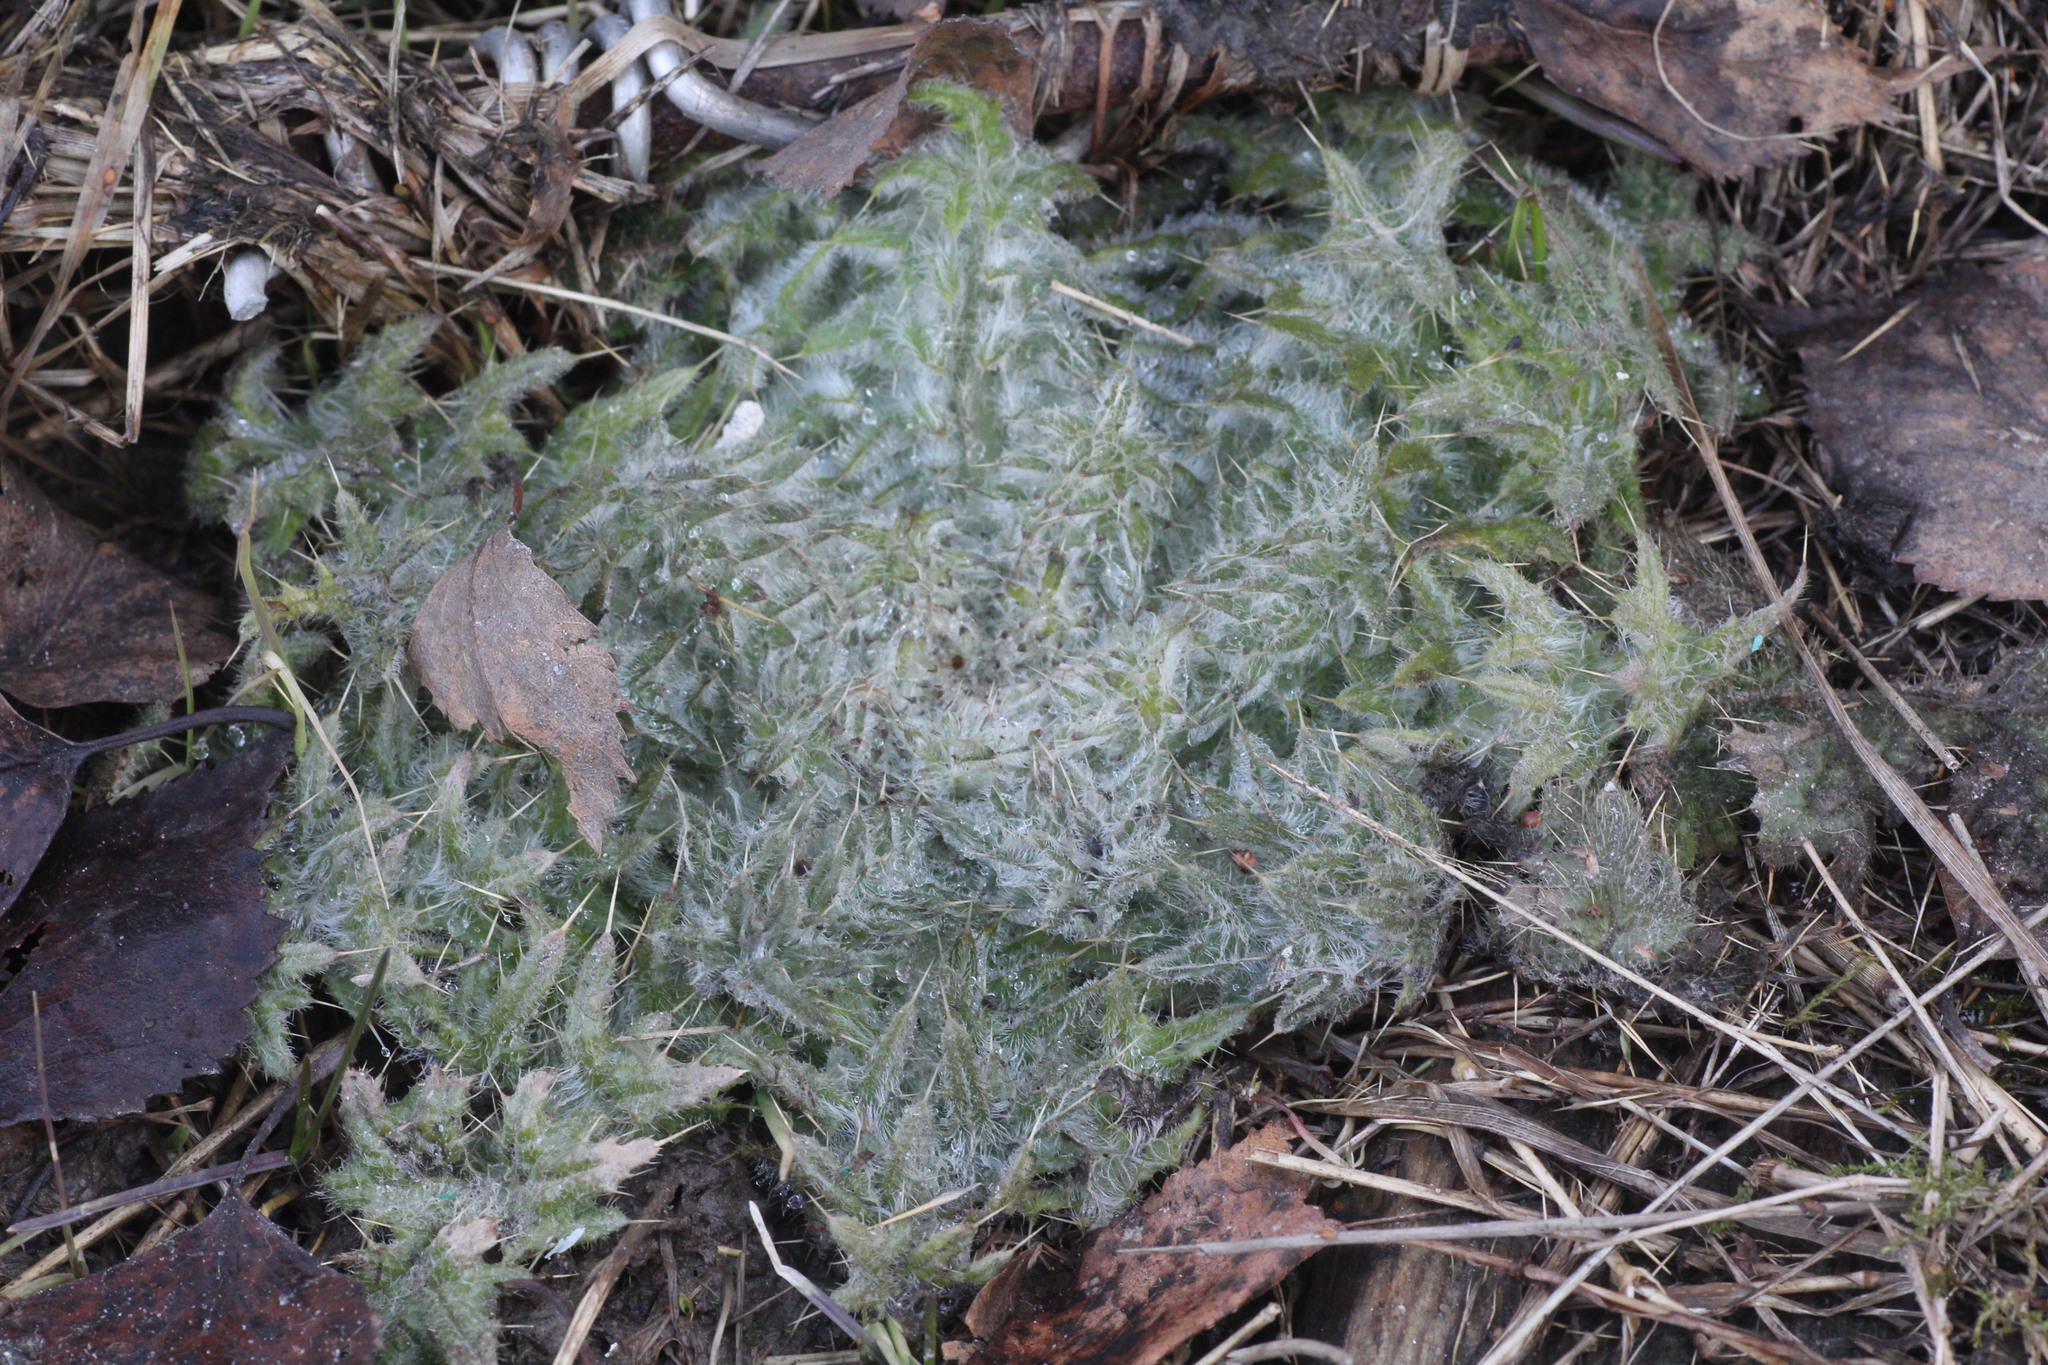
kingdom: Plantae
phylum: Tracheophyta
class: Magnoliopsida
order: Asterales
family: Asteraceae
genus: Cirsium
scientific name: Cirsium vulgare
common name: Bull thistle
